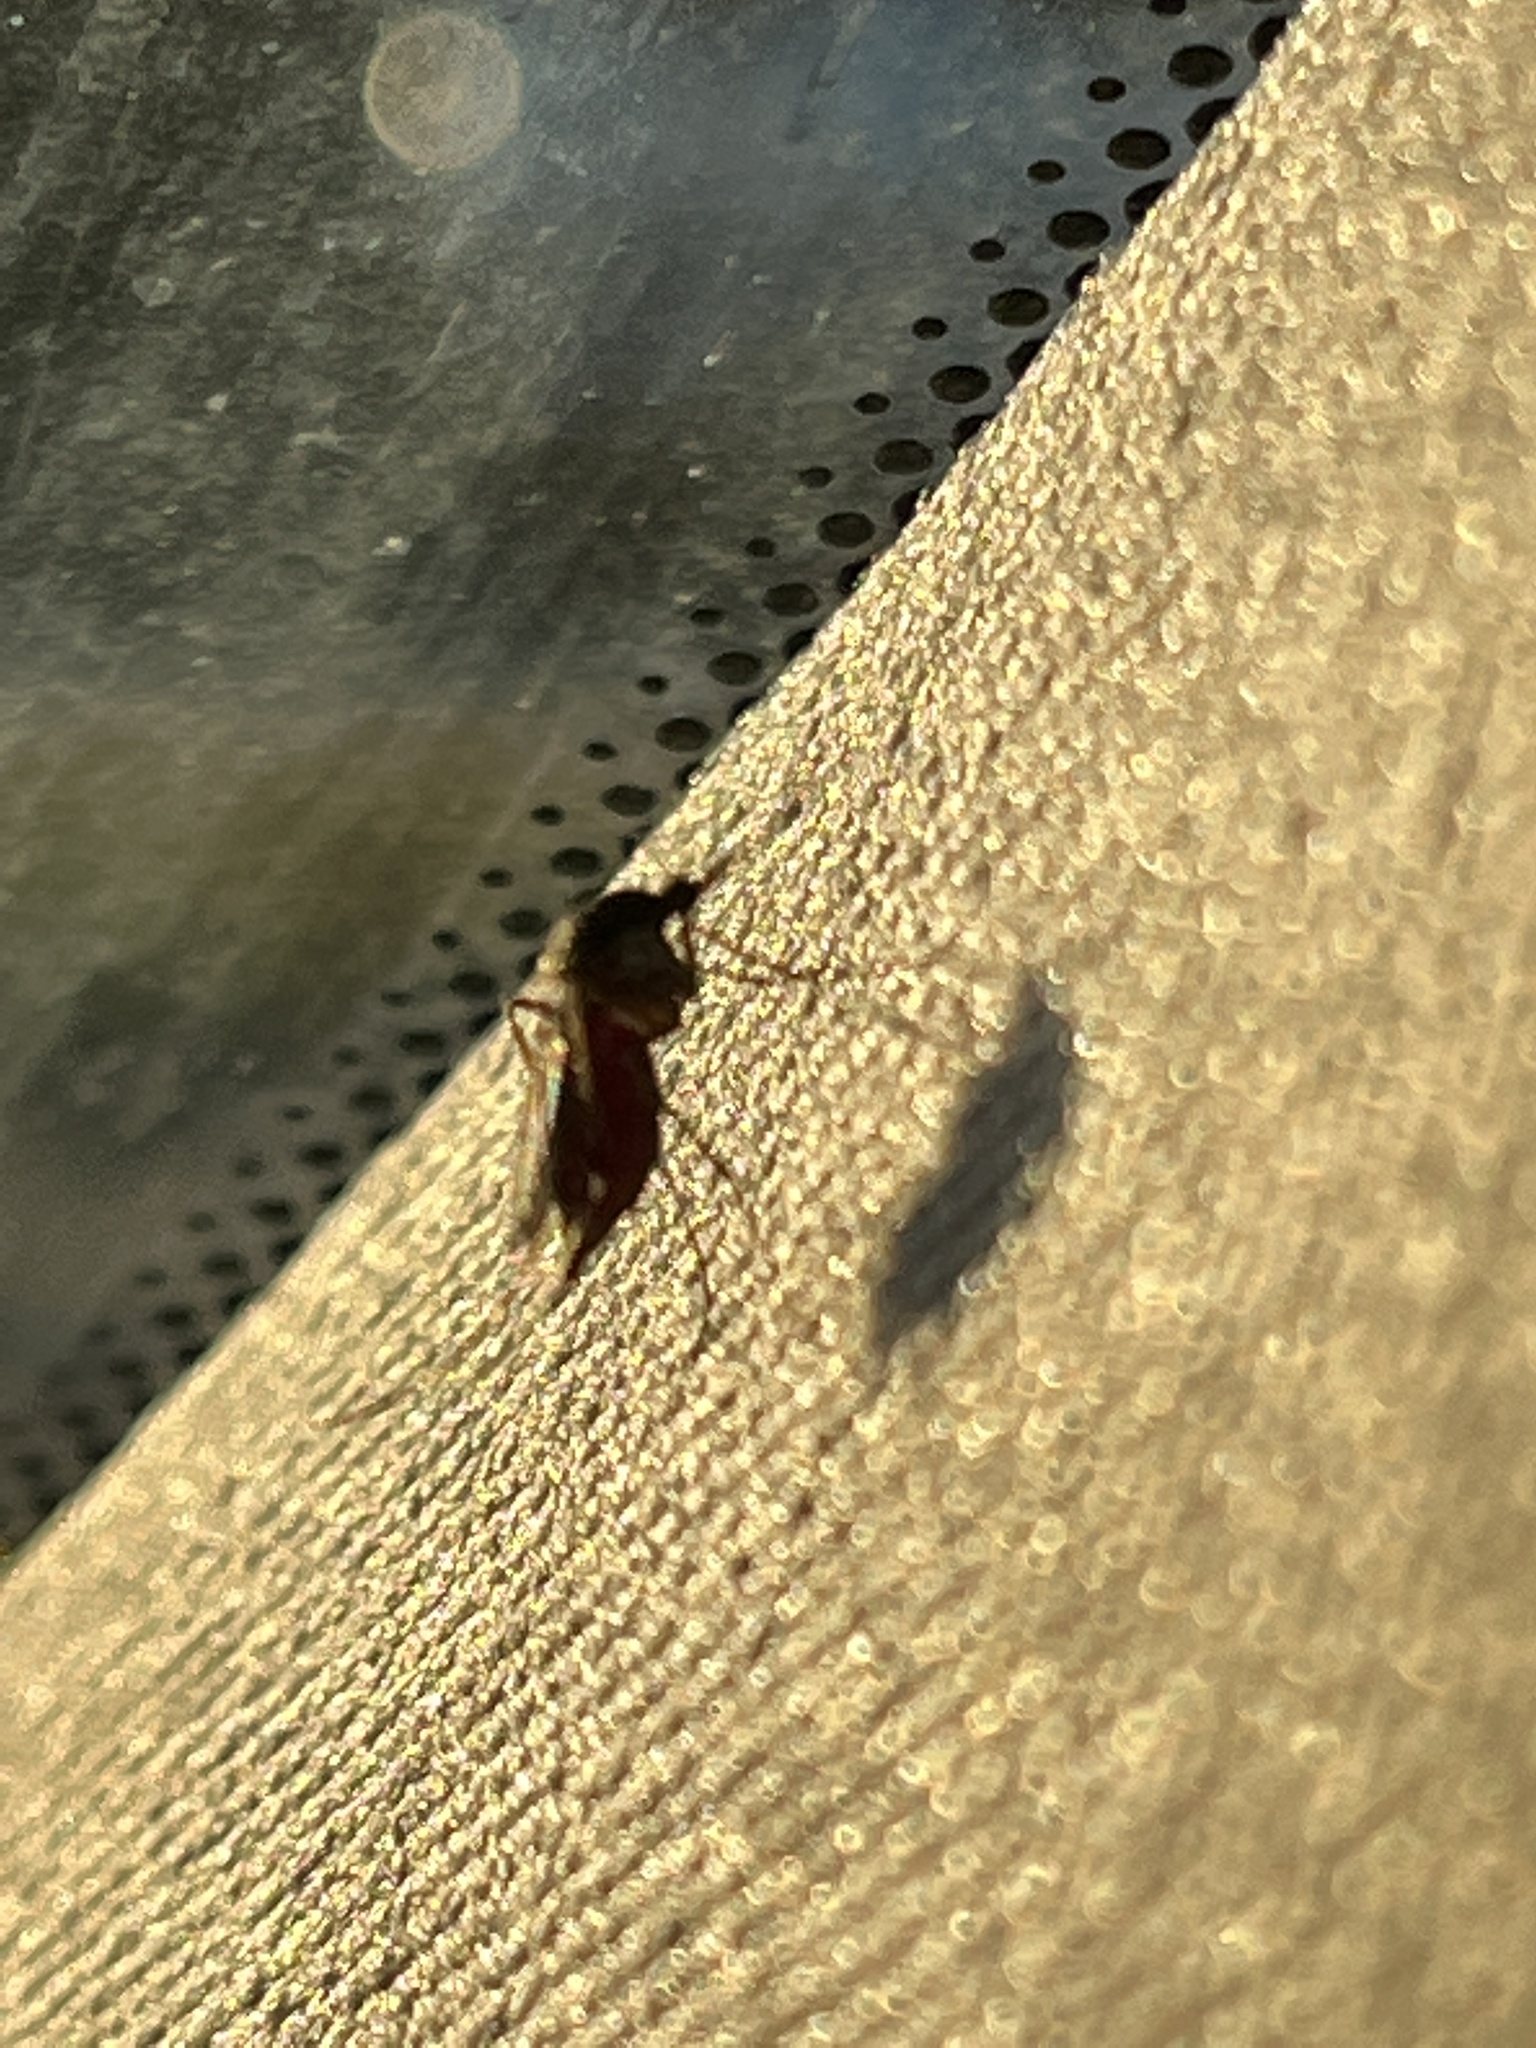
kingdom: Animalia
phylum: Arthropoda
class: Insecta
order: Diptera
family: Culicidae
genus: Aedes
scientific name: Aedes sollicitans
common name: Saltmarsh mosquito
